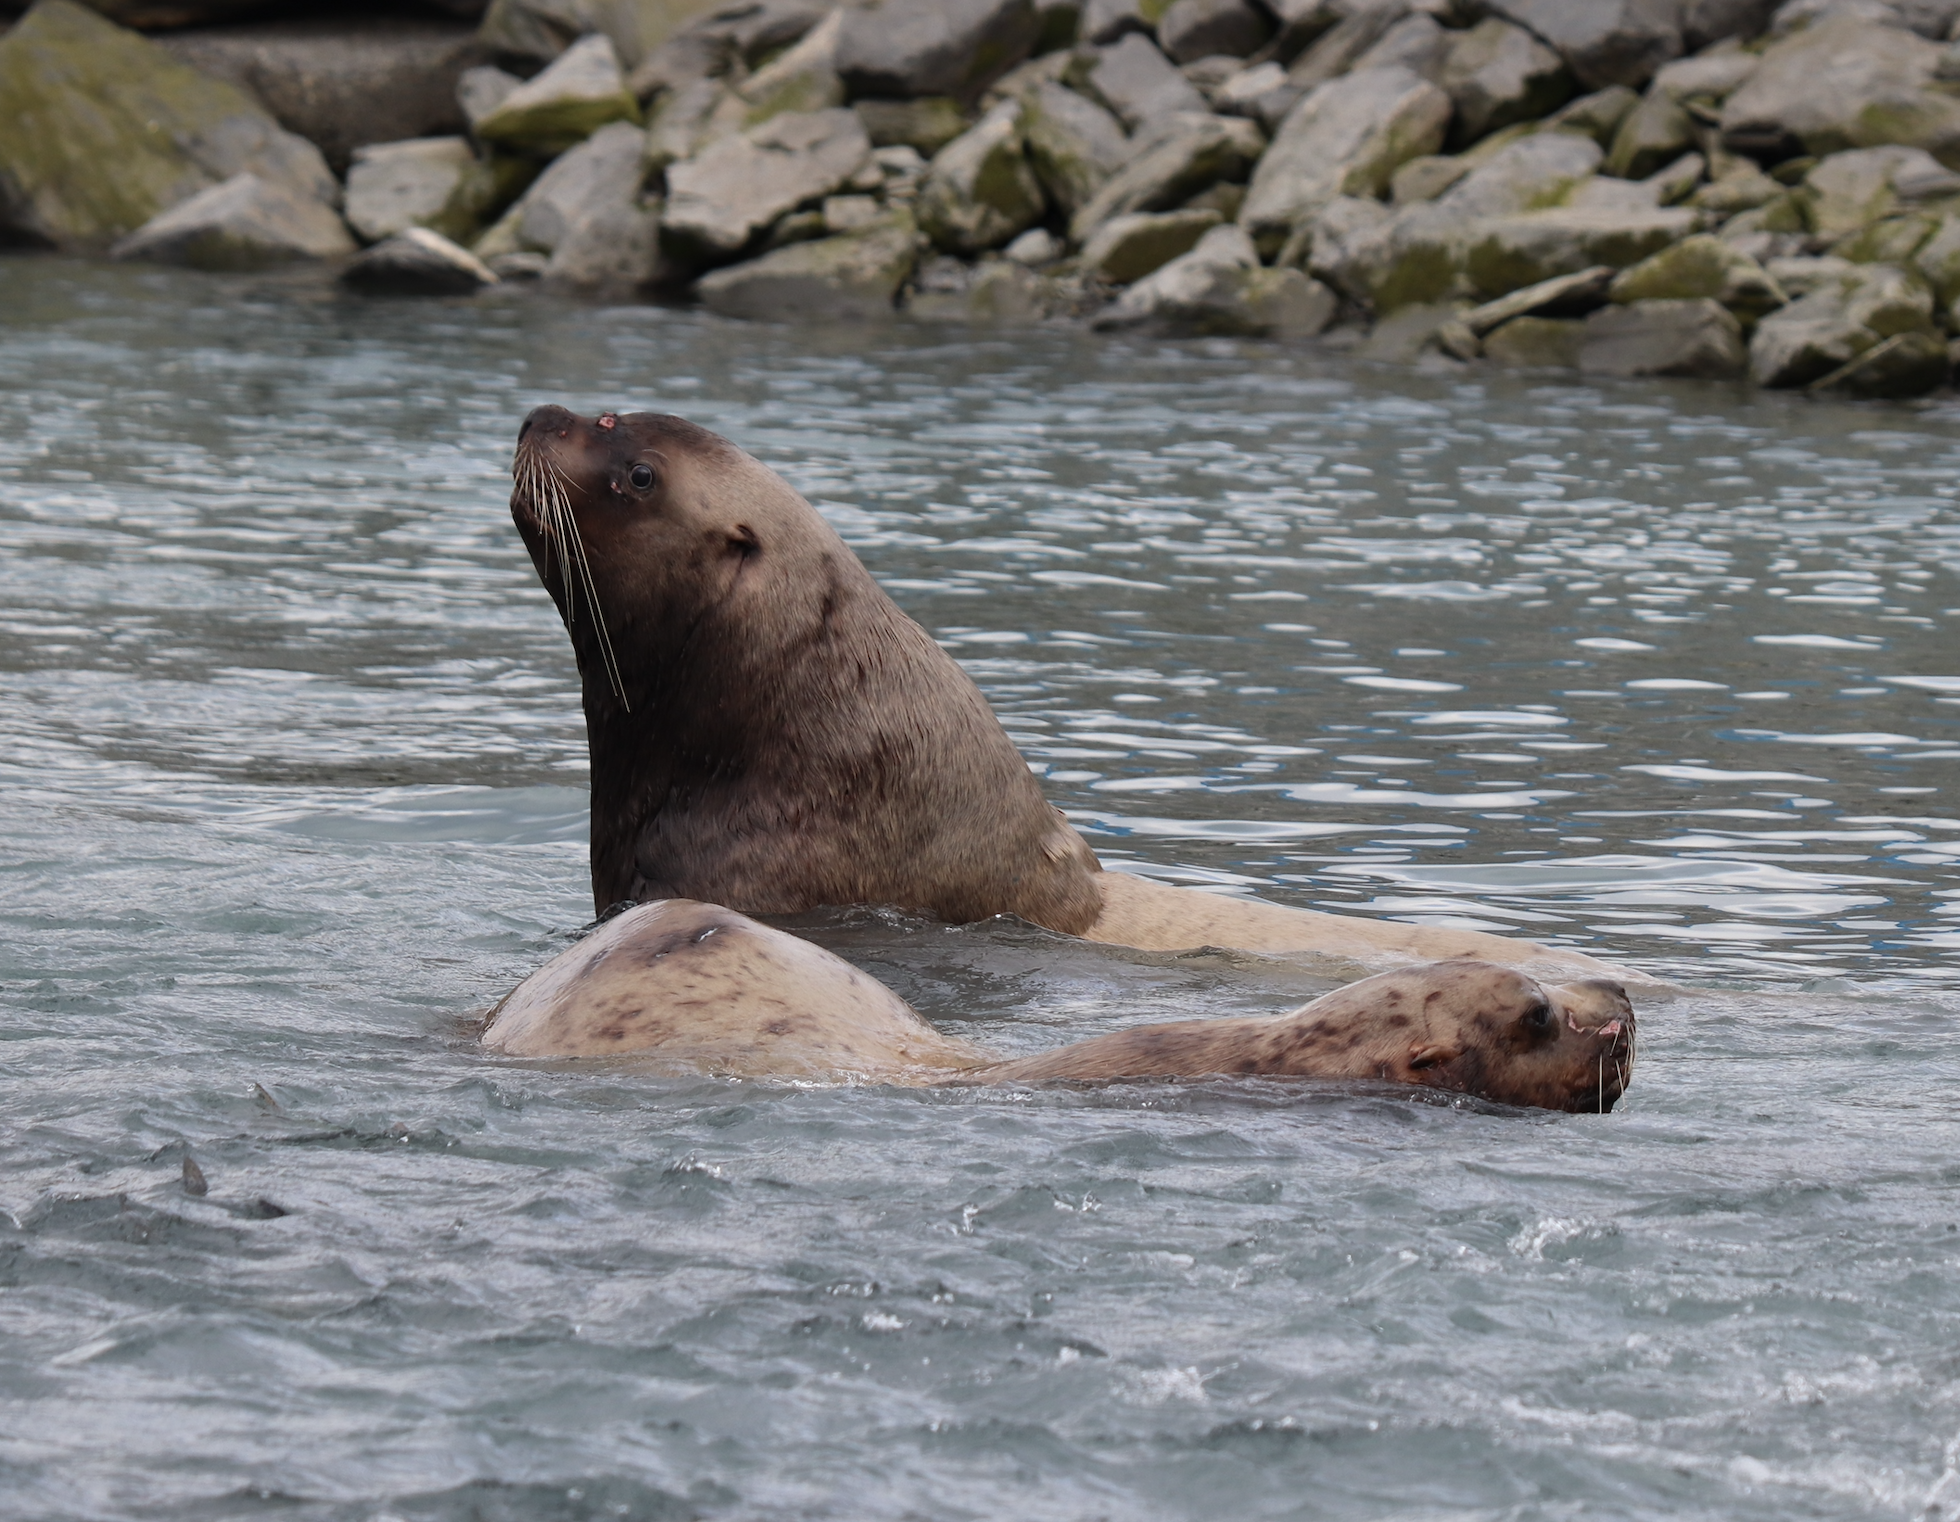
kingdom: Animalia
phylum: Chordata
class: Mammalia
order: Carnivora
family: Otariidae
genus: Eumetopias
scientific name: Eumetopias jubatus
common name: Steller sea lion
